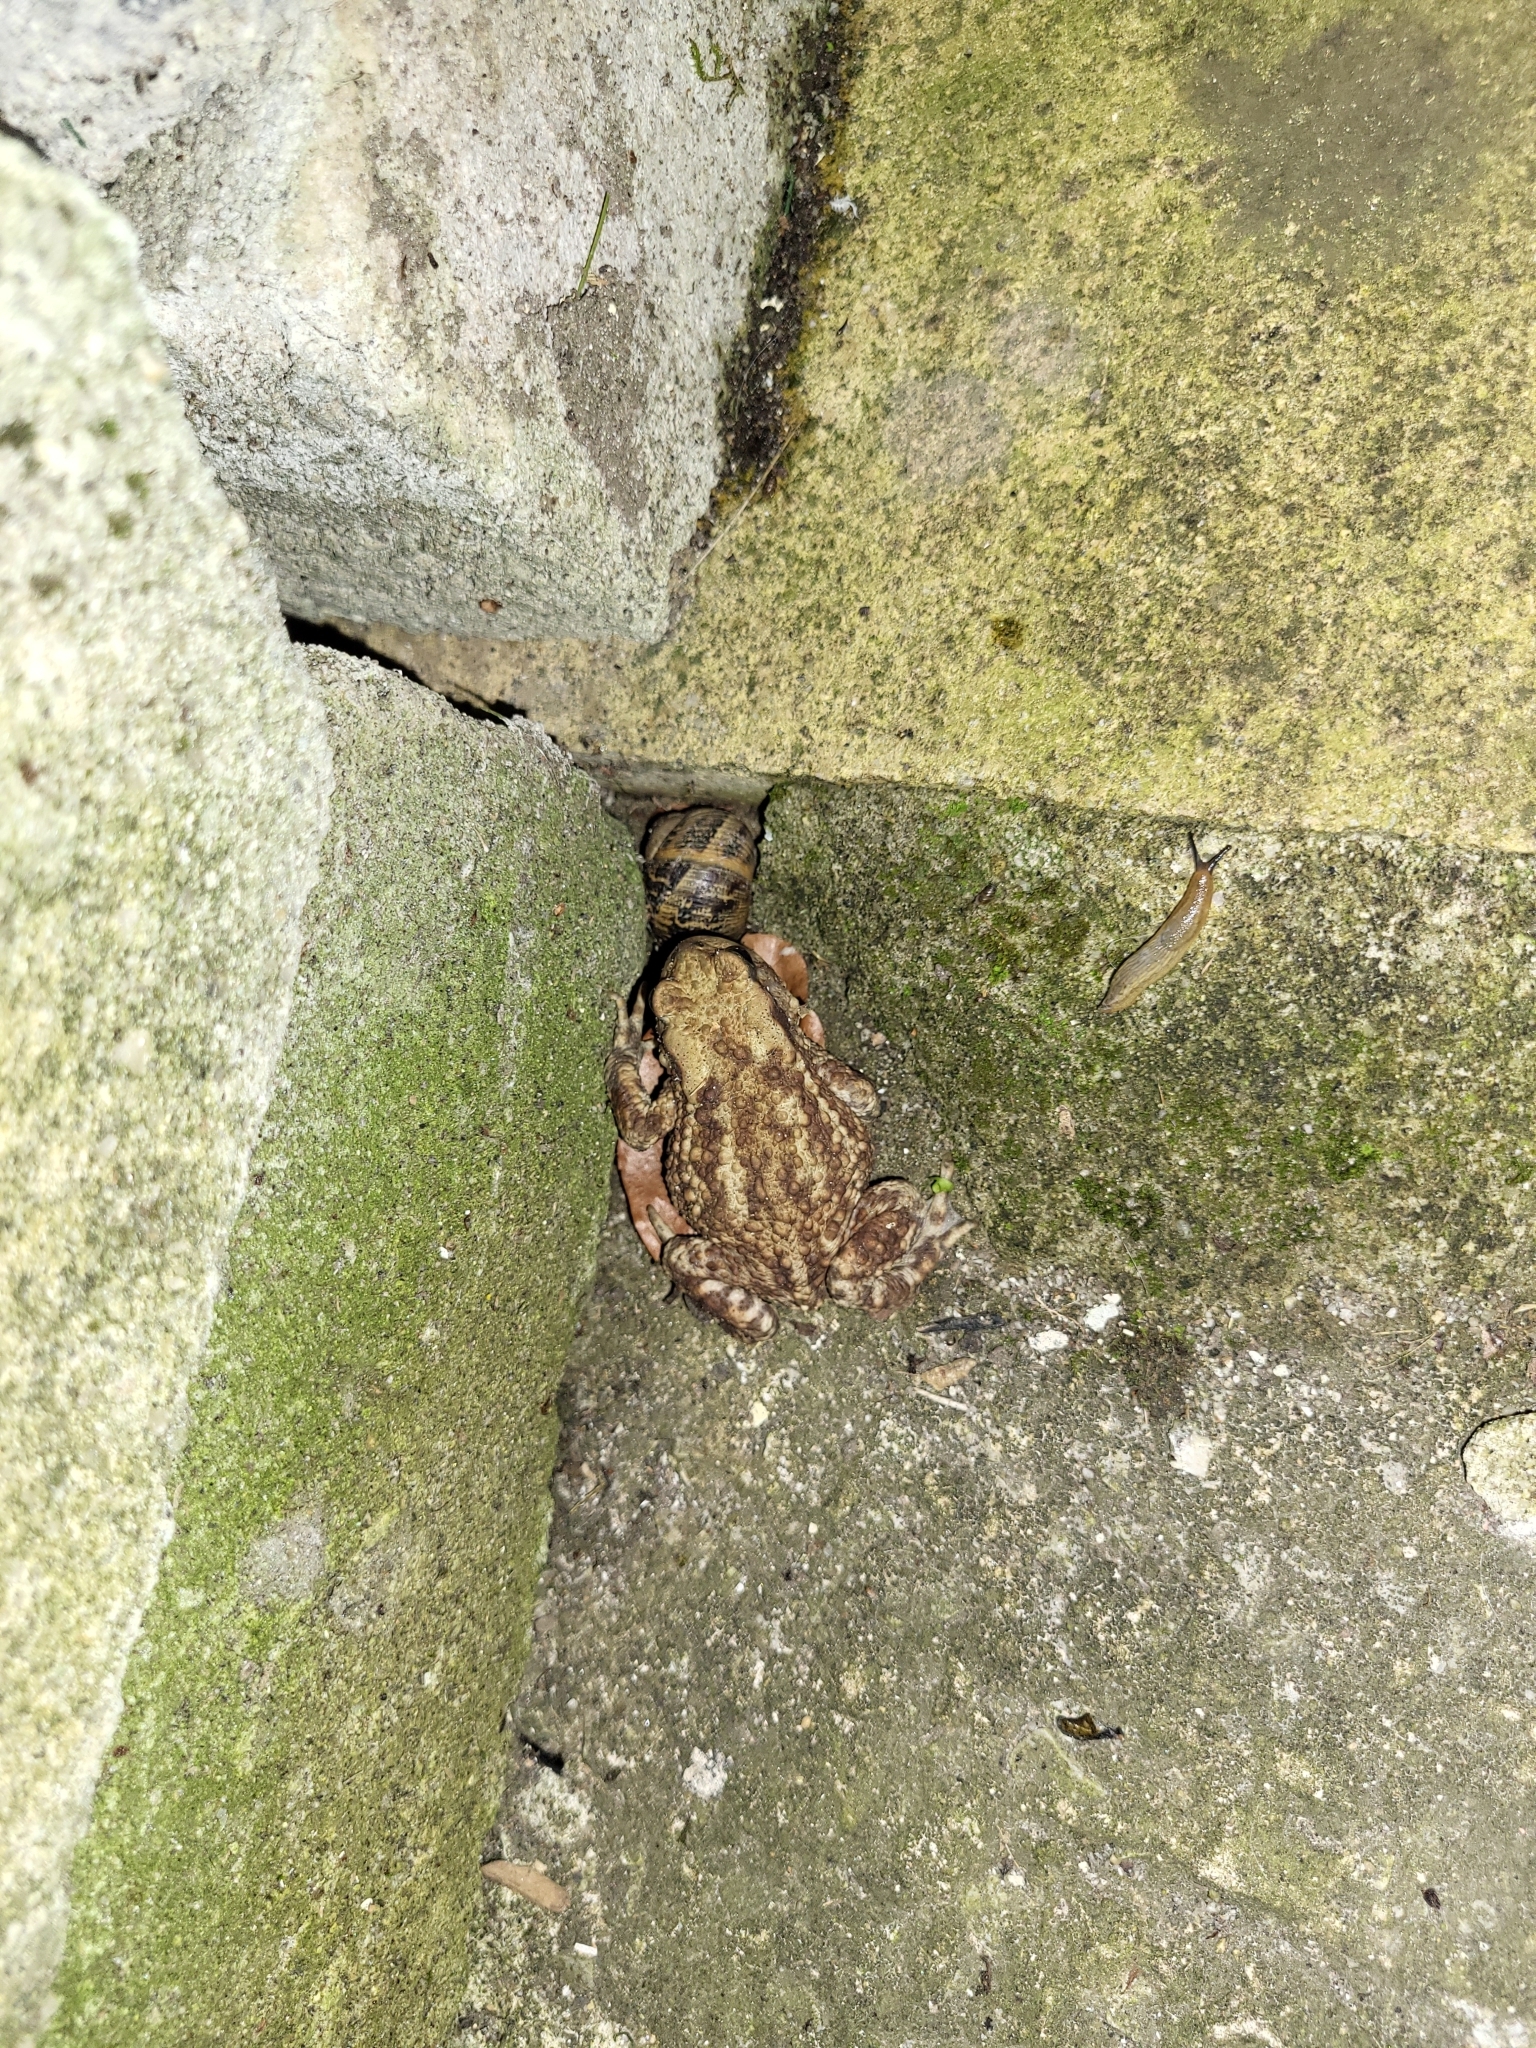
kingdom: Animalia
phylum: Chordata
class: Amphibia
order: Anura
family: Bufonidae
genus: Bufo
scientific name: Bufo bufo
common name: Common toad
